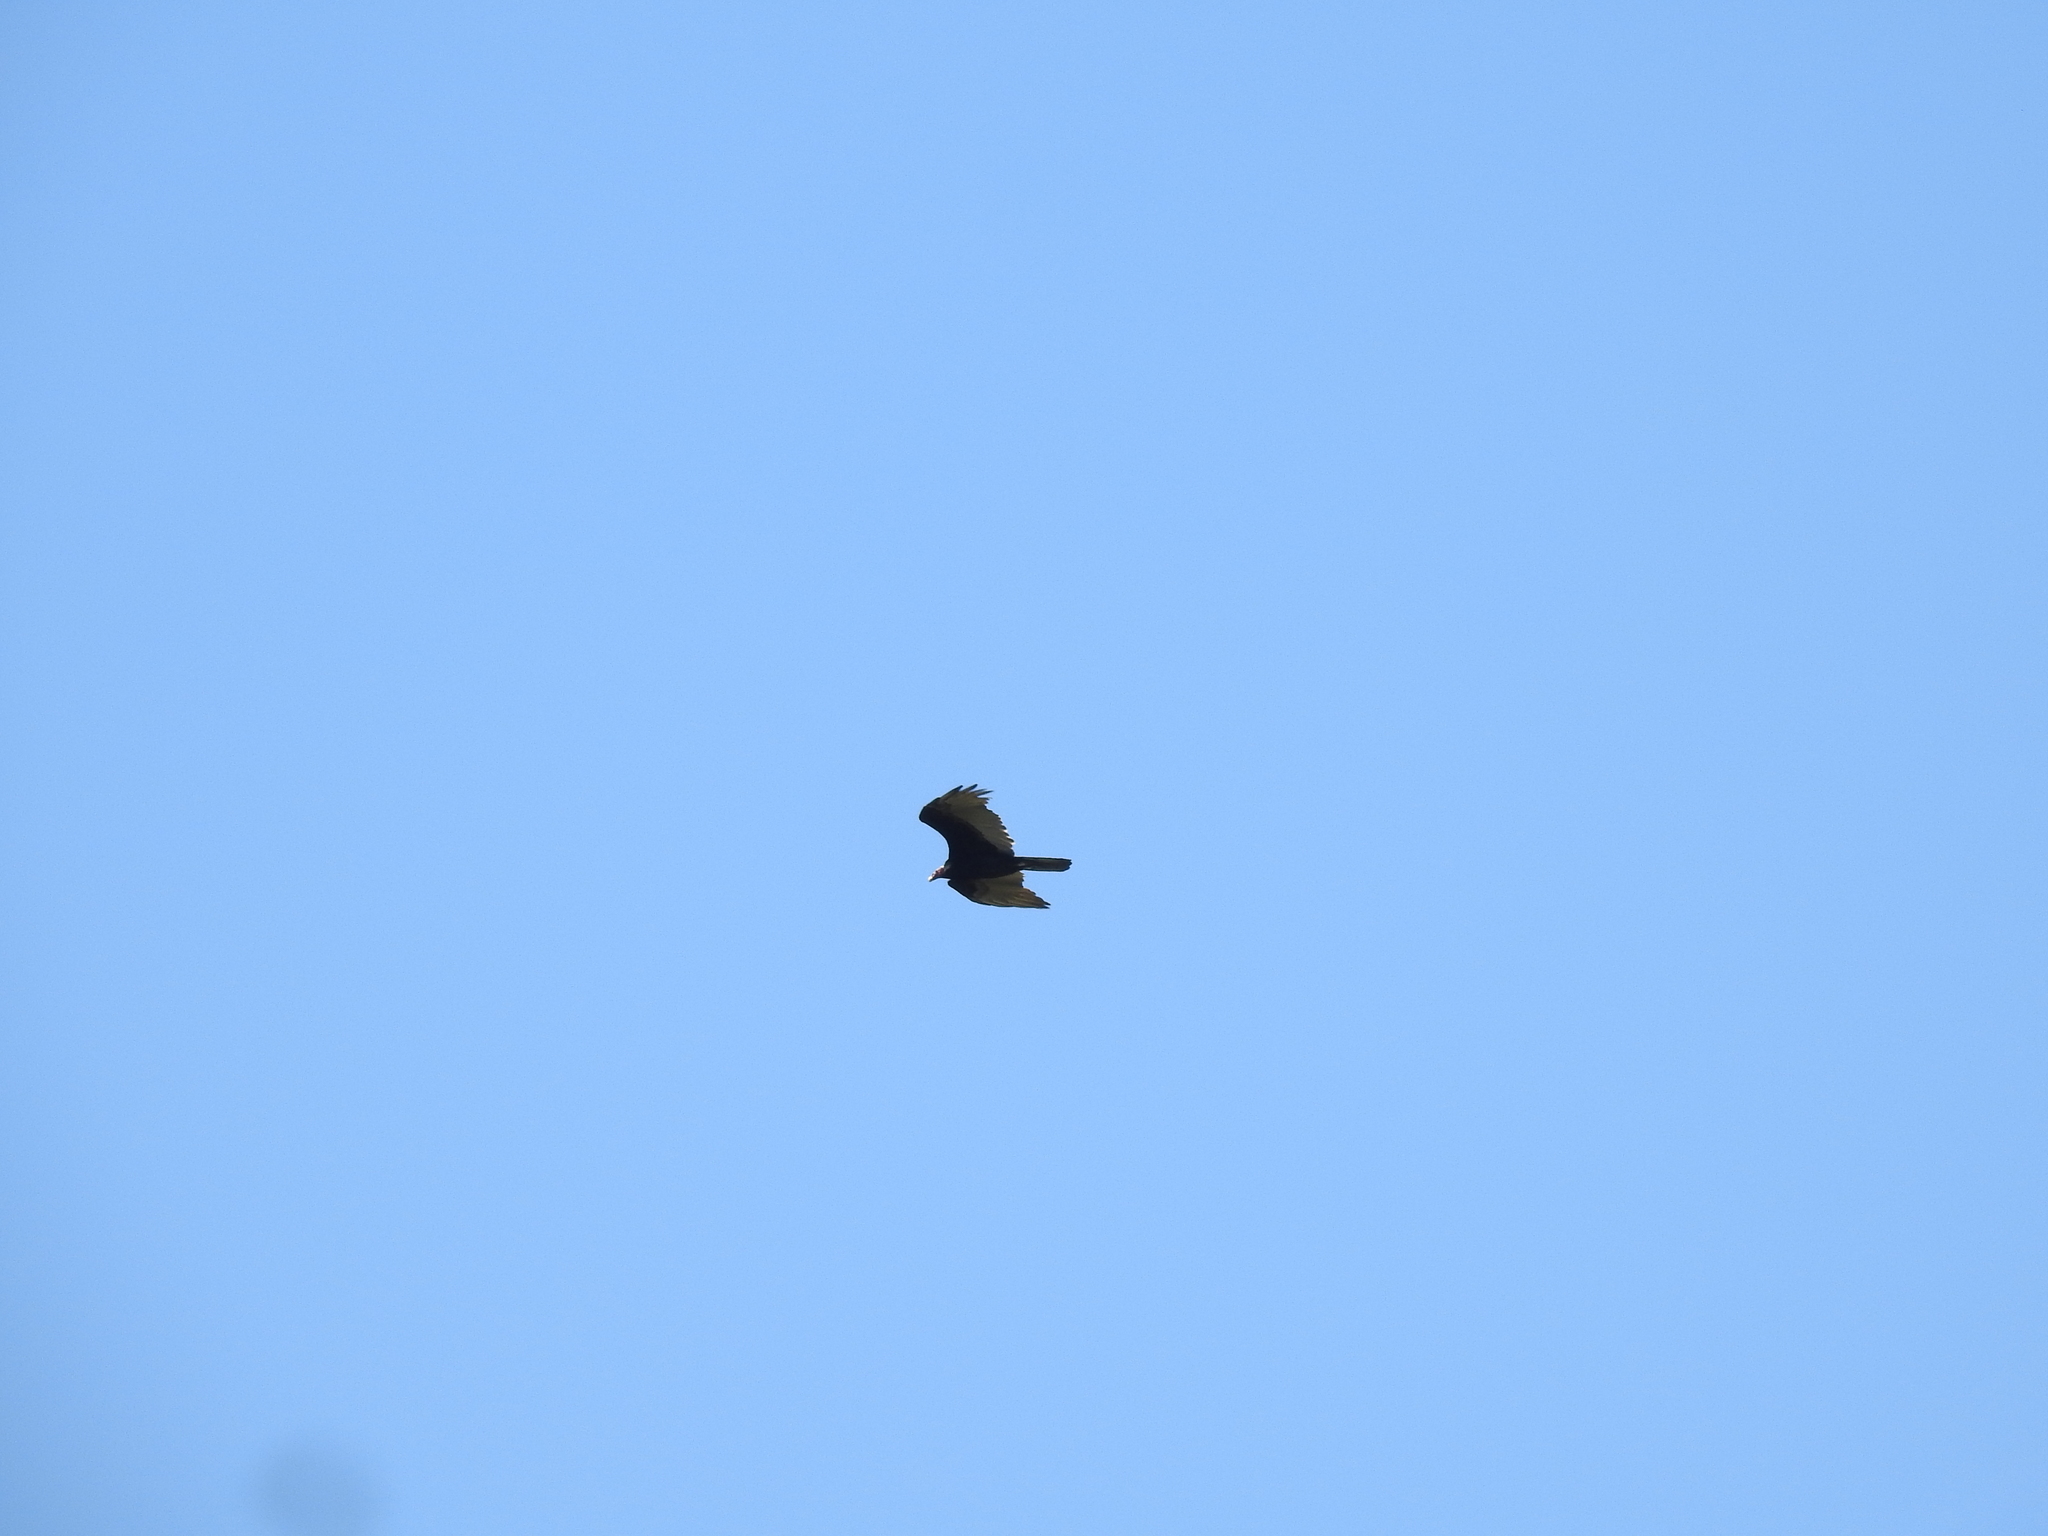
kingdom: Animalia
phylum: Chordata
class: Aves
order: Accipitriformes
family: Cathartidae
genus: Cathartes
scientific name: Cathartes aura
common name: Turkey vulture
